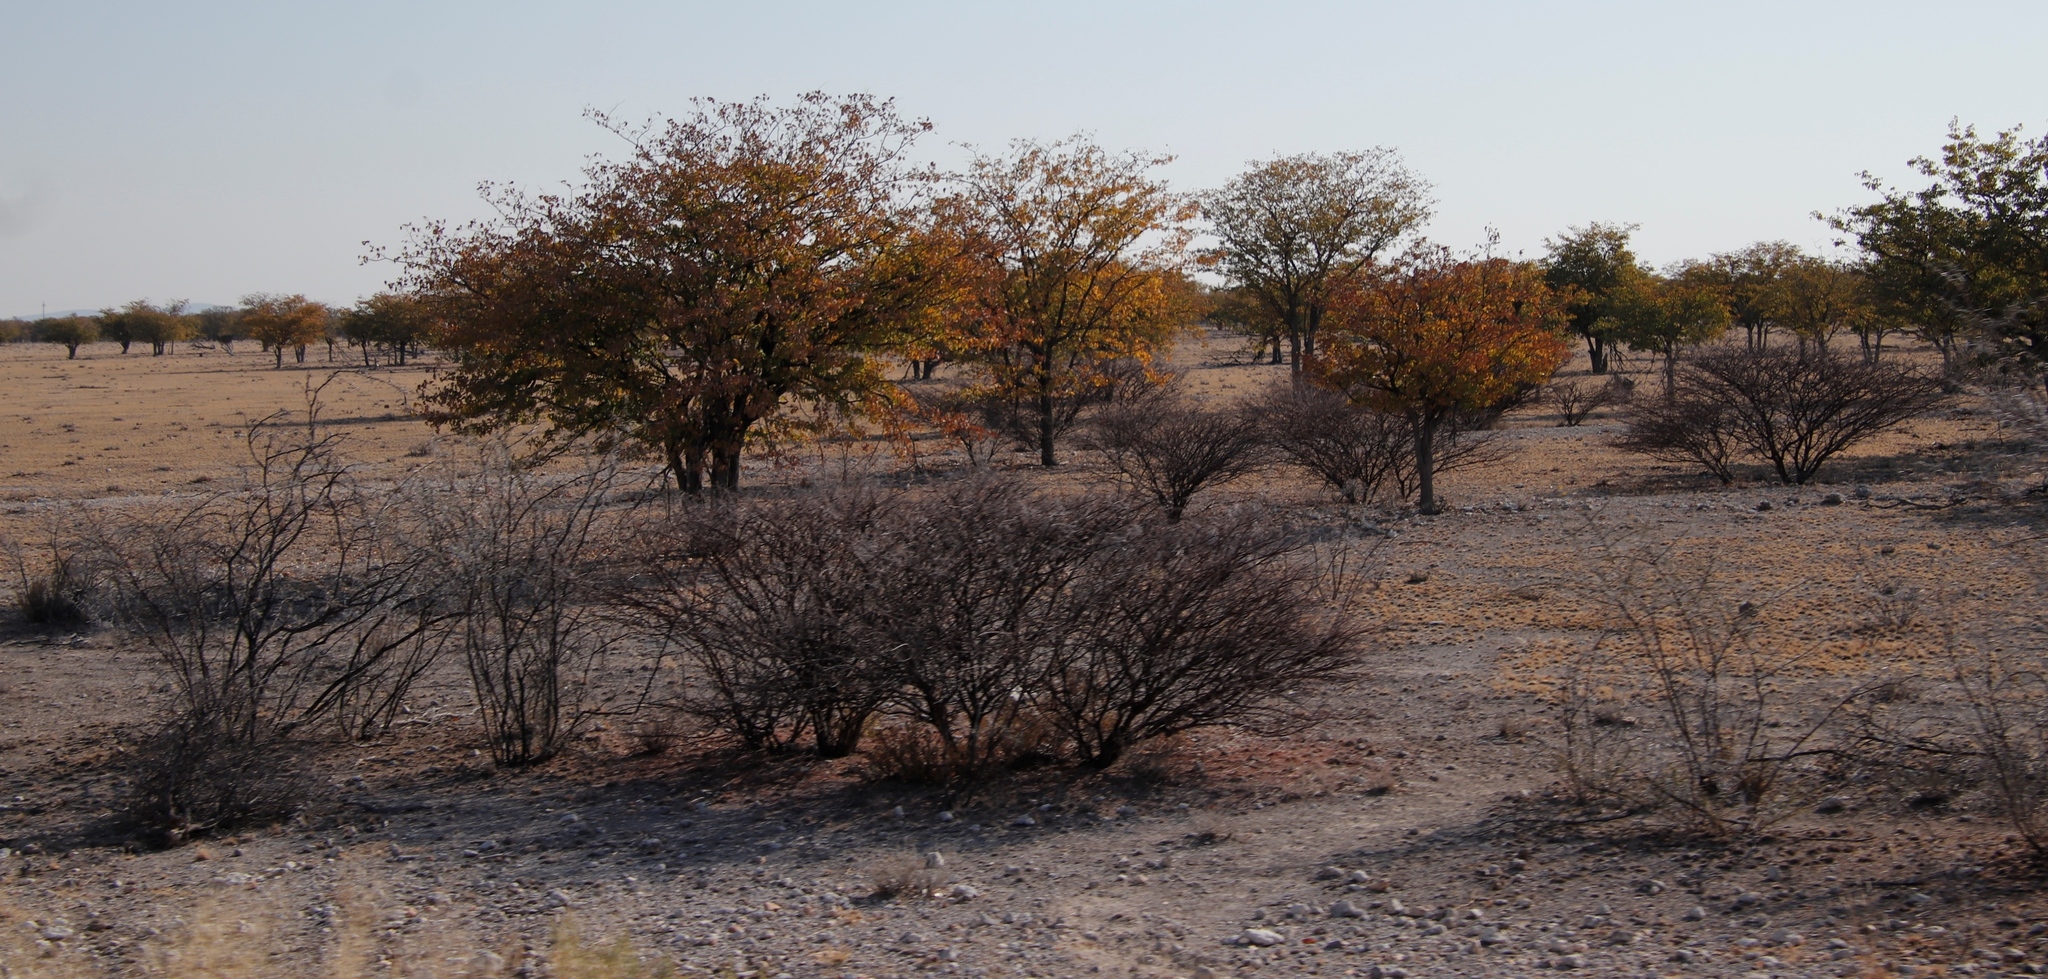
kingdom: Plantae
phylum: Tracheophyta
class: Magnoliopsida
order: Fabales
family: Fabaceae
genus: Vachellia
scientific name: Vachellia nebrownii
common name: Water acacia
